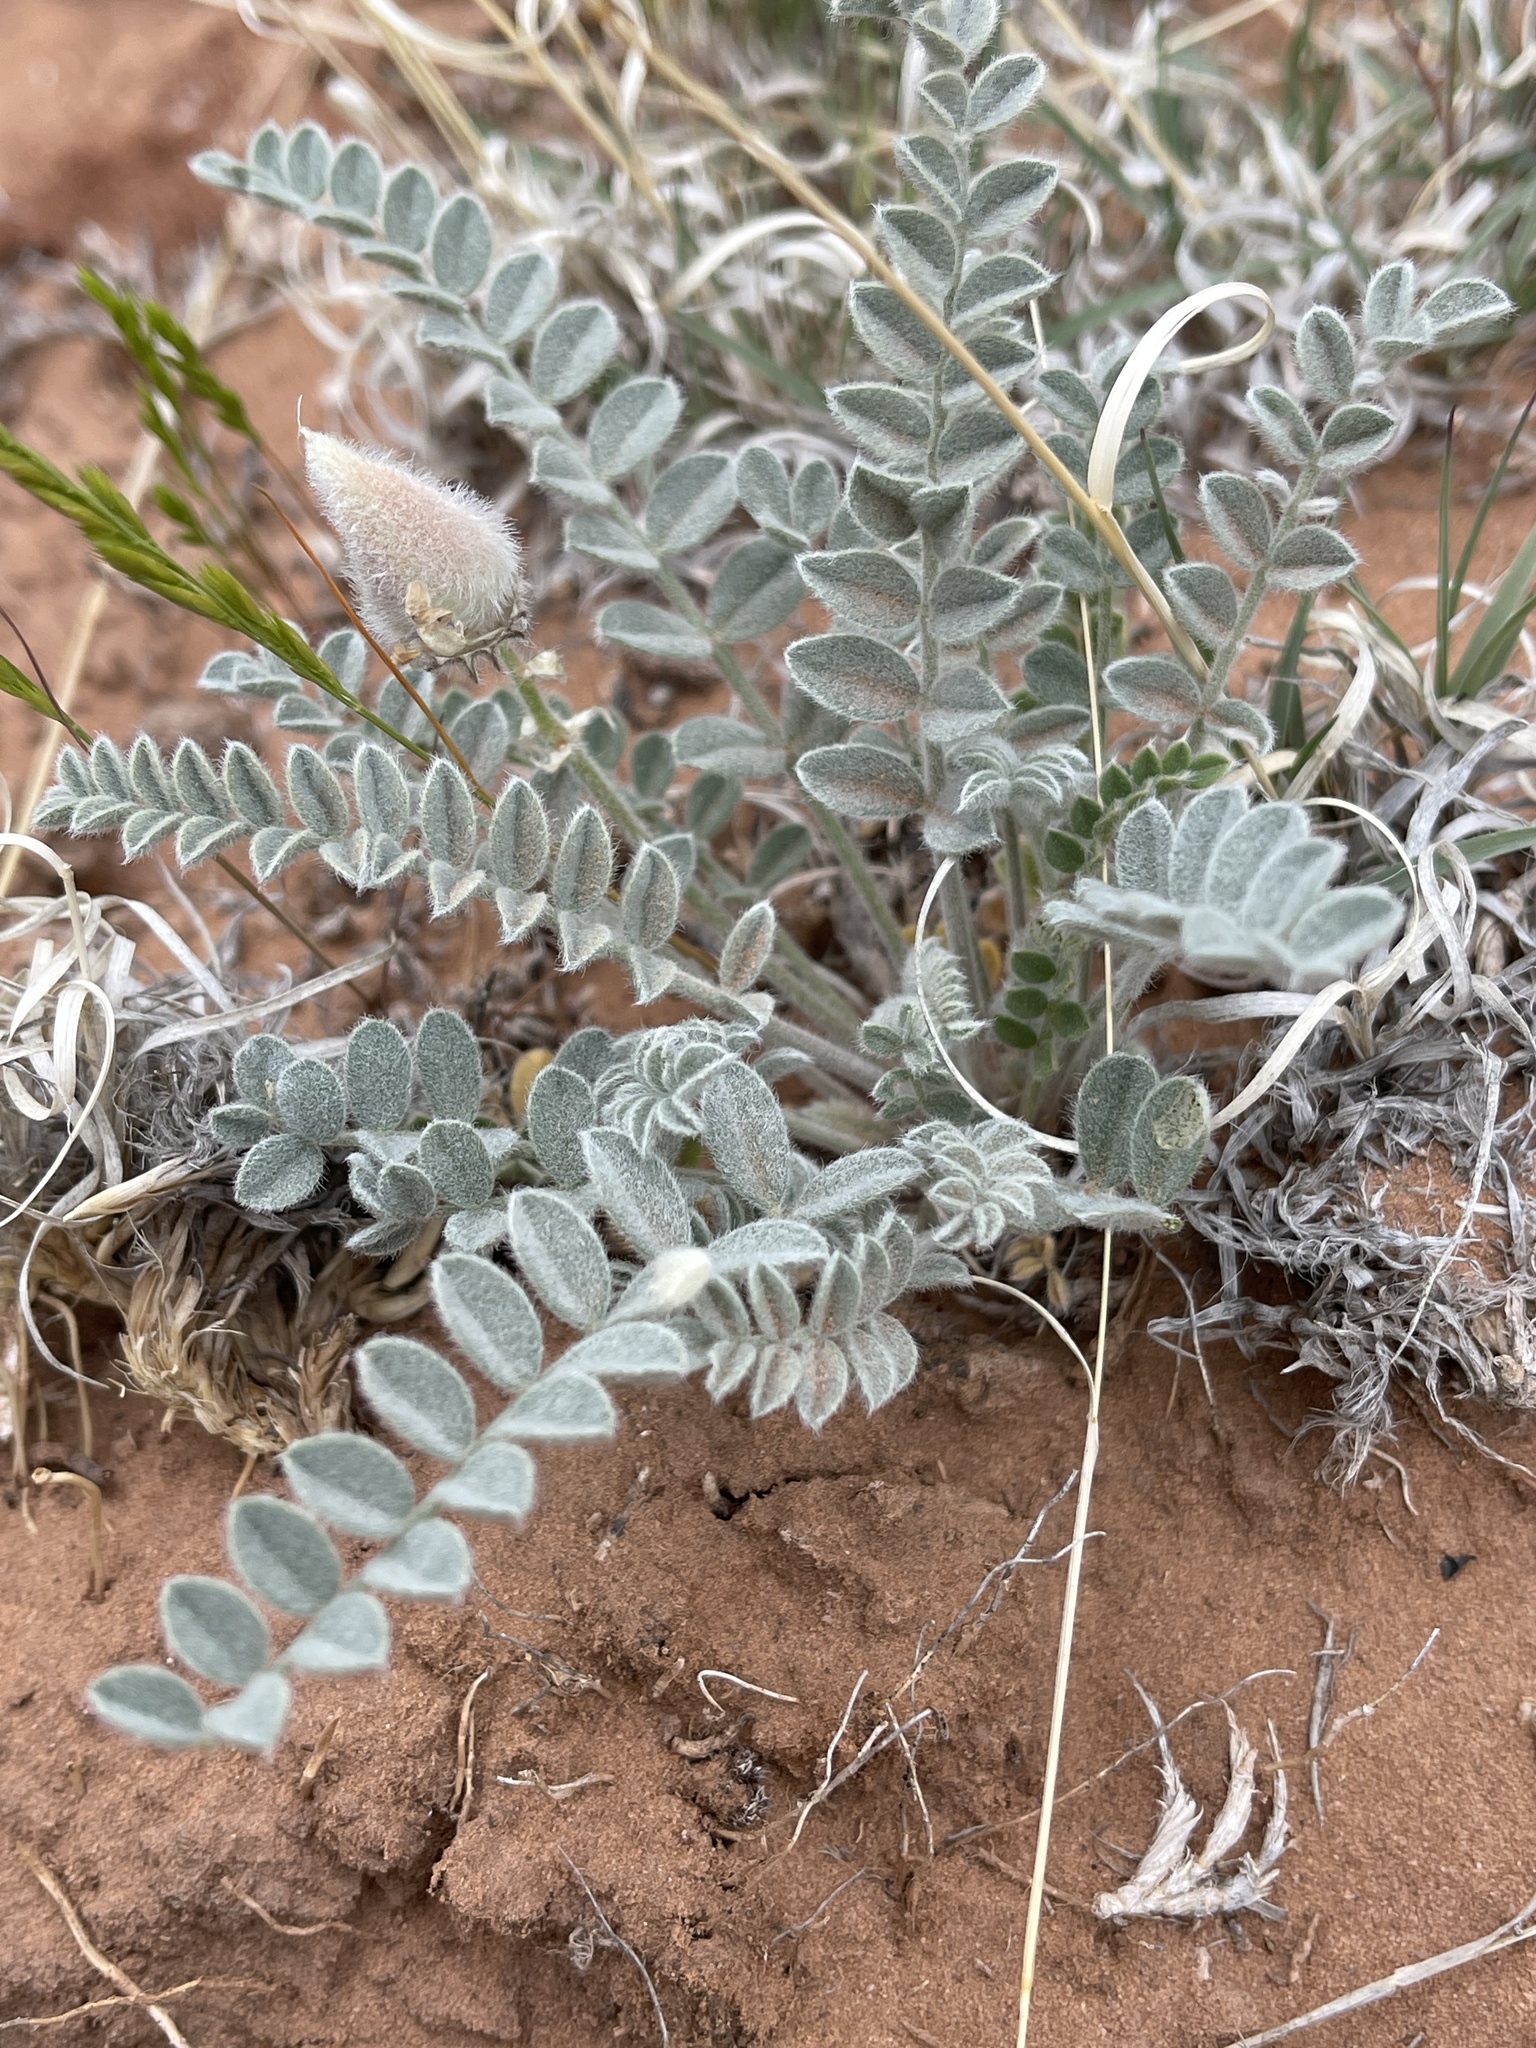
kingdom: Plantae
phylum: Tracheophyta
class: Magnoliopsida
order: Fabales
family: Fabaceae
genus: Astragalus
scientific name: Astragalus mollissimus
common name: Woolly locoweed
